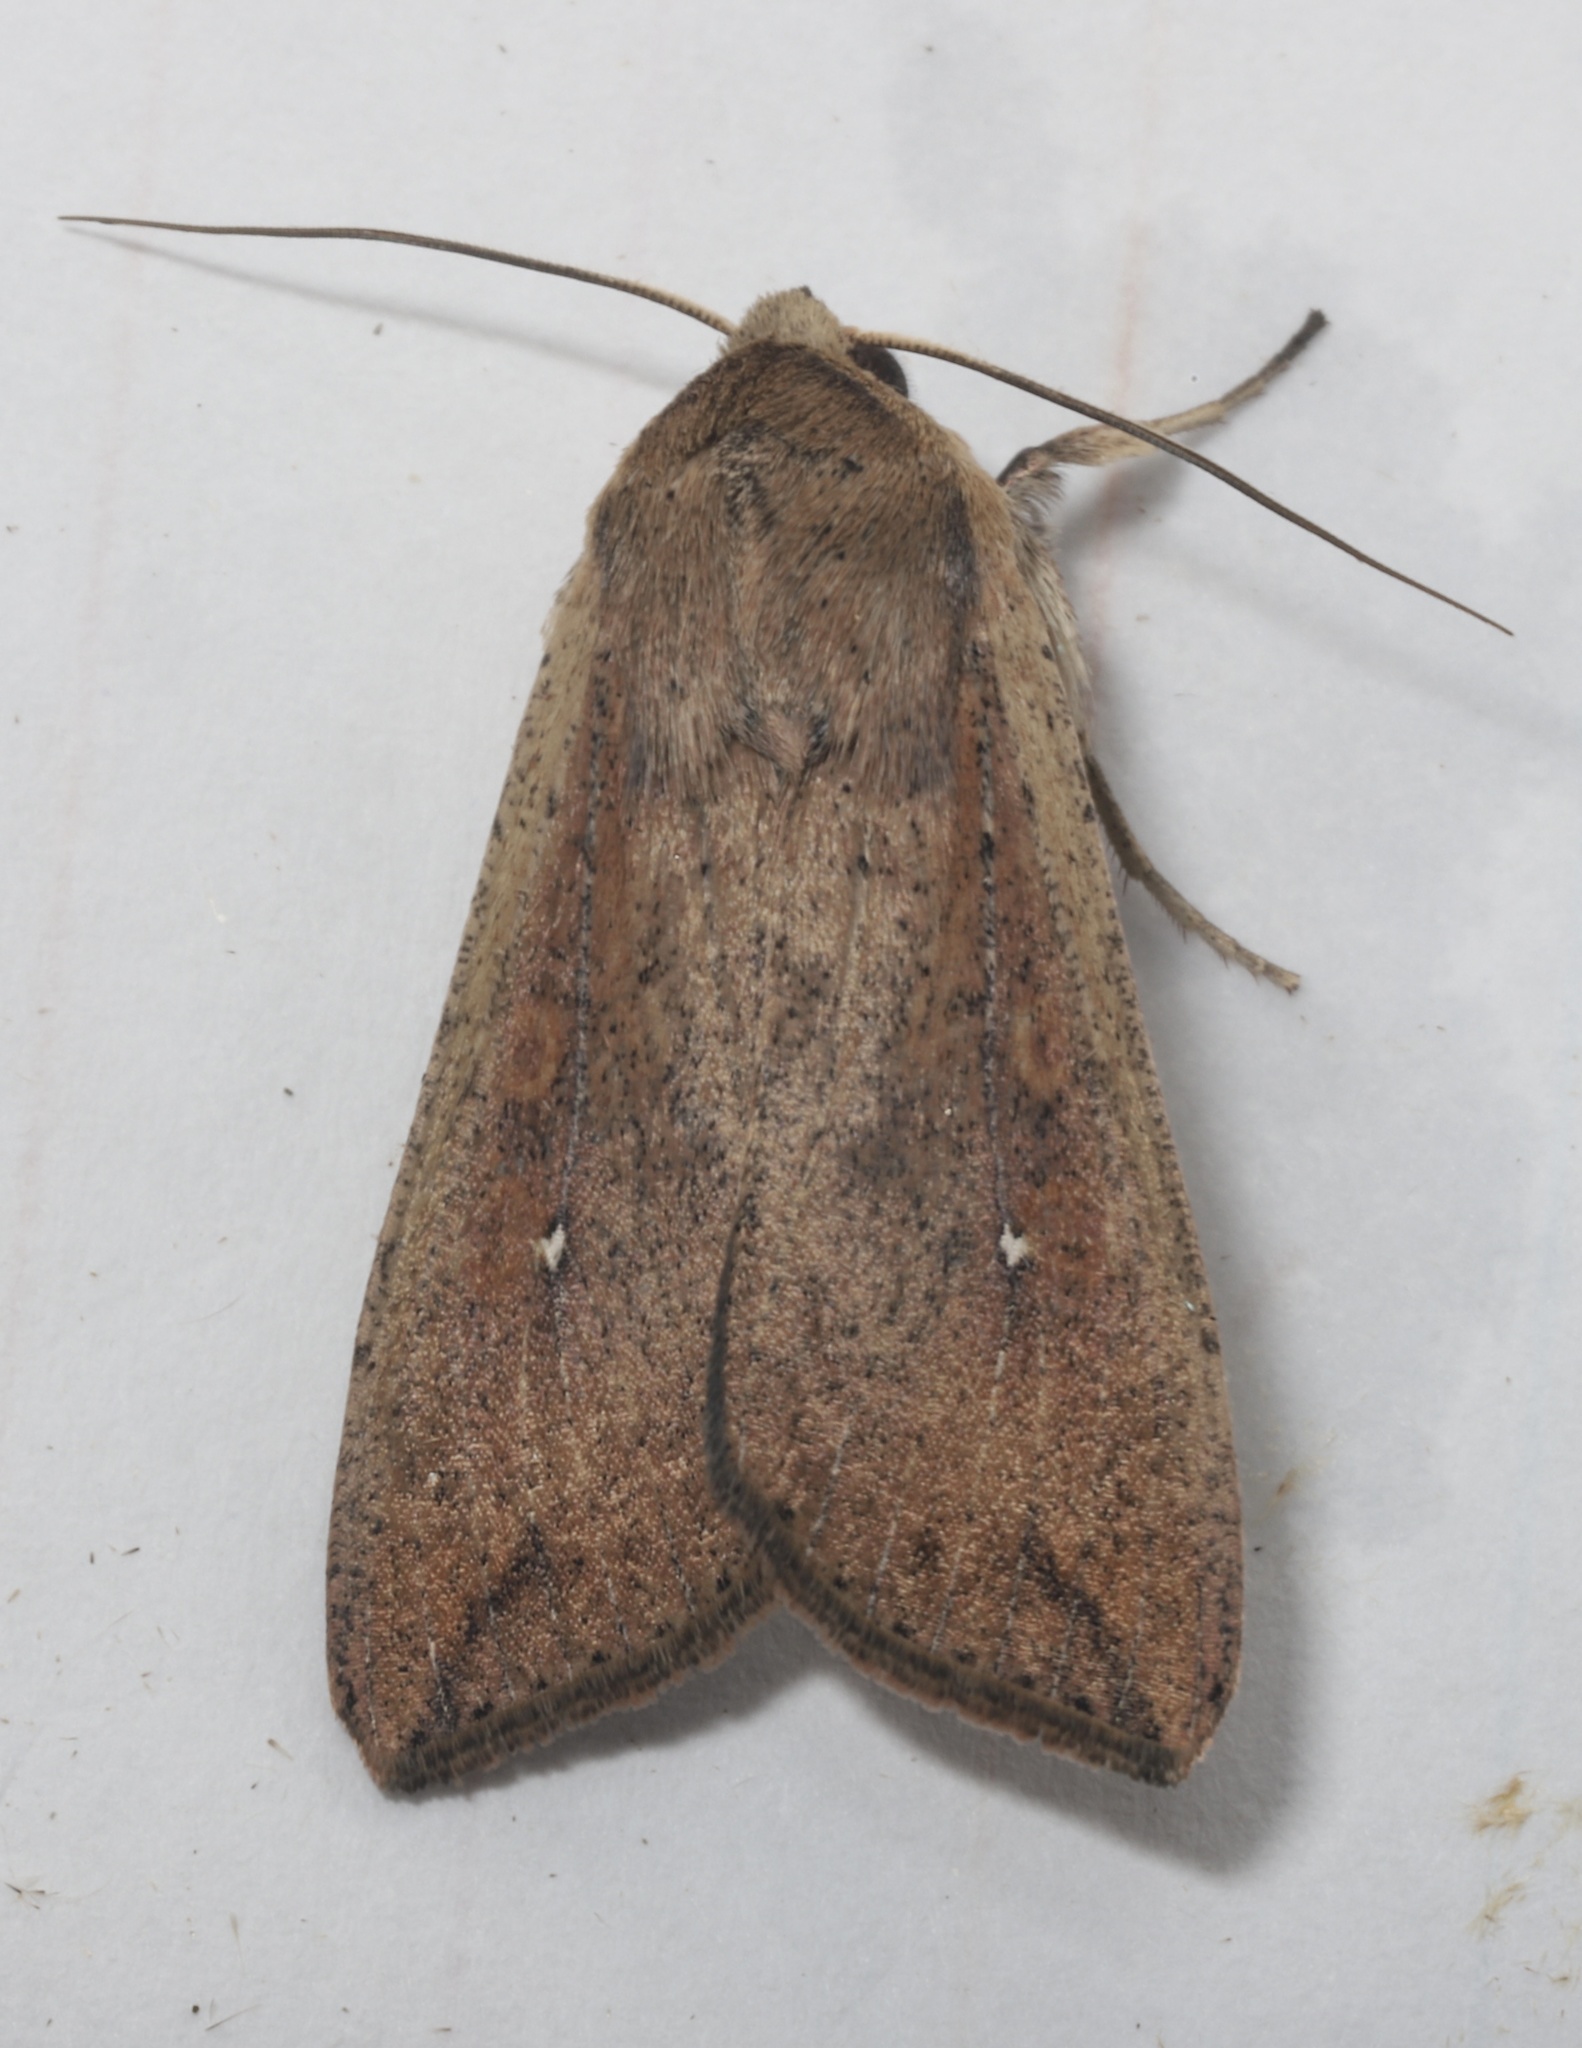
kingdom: Animalia
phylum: Arthropoda
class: Insecta
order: Lepidoptera
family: Noctuidae
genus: Mythimna
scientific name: Mythimna unipuncta
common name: White-speck
